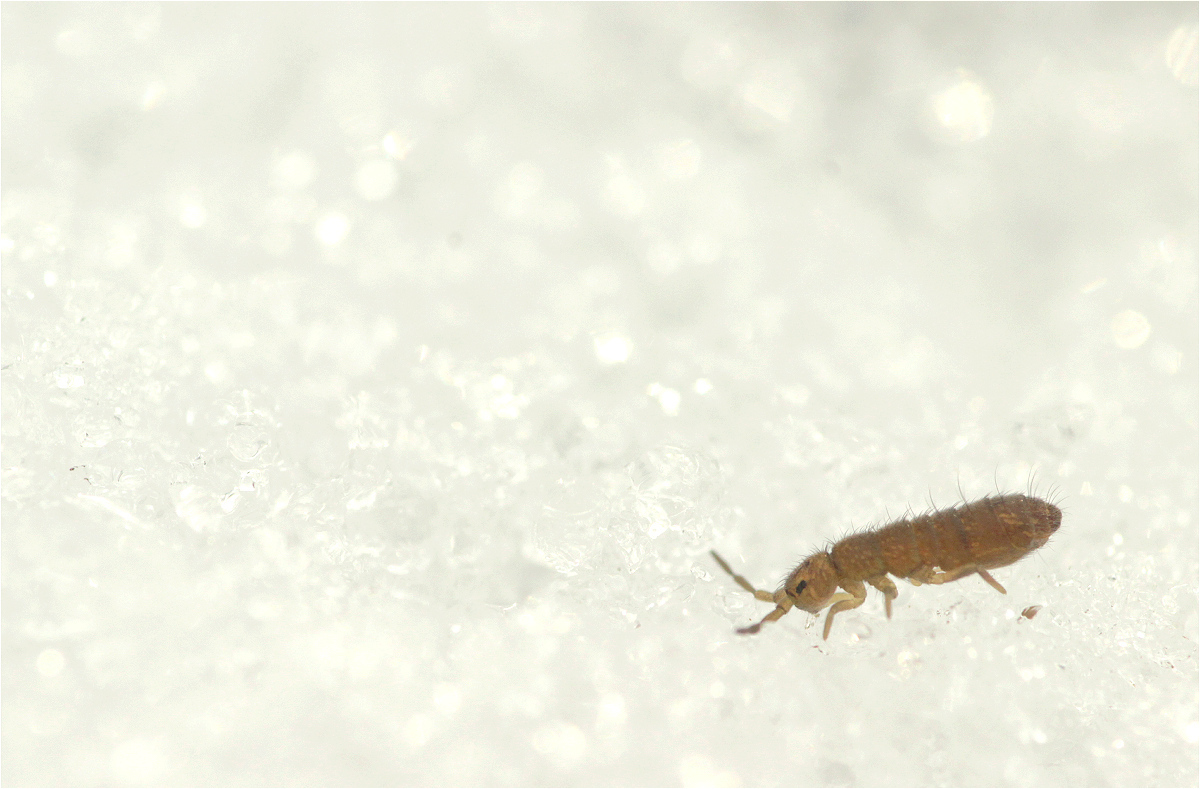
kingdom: Animalia
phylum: Arthropoda
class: Collembola
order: Entomobryomorpha
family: Isotomidae
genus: Isotoma
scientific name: Isotoma viridis
